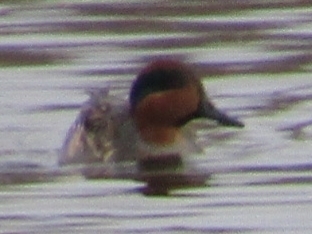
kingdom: Animalia
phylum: Chordata
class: Aves
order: Anseriformes
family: Anatidae
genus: Anas
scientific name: Anas carolinensis
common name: Green-winged teal
